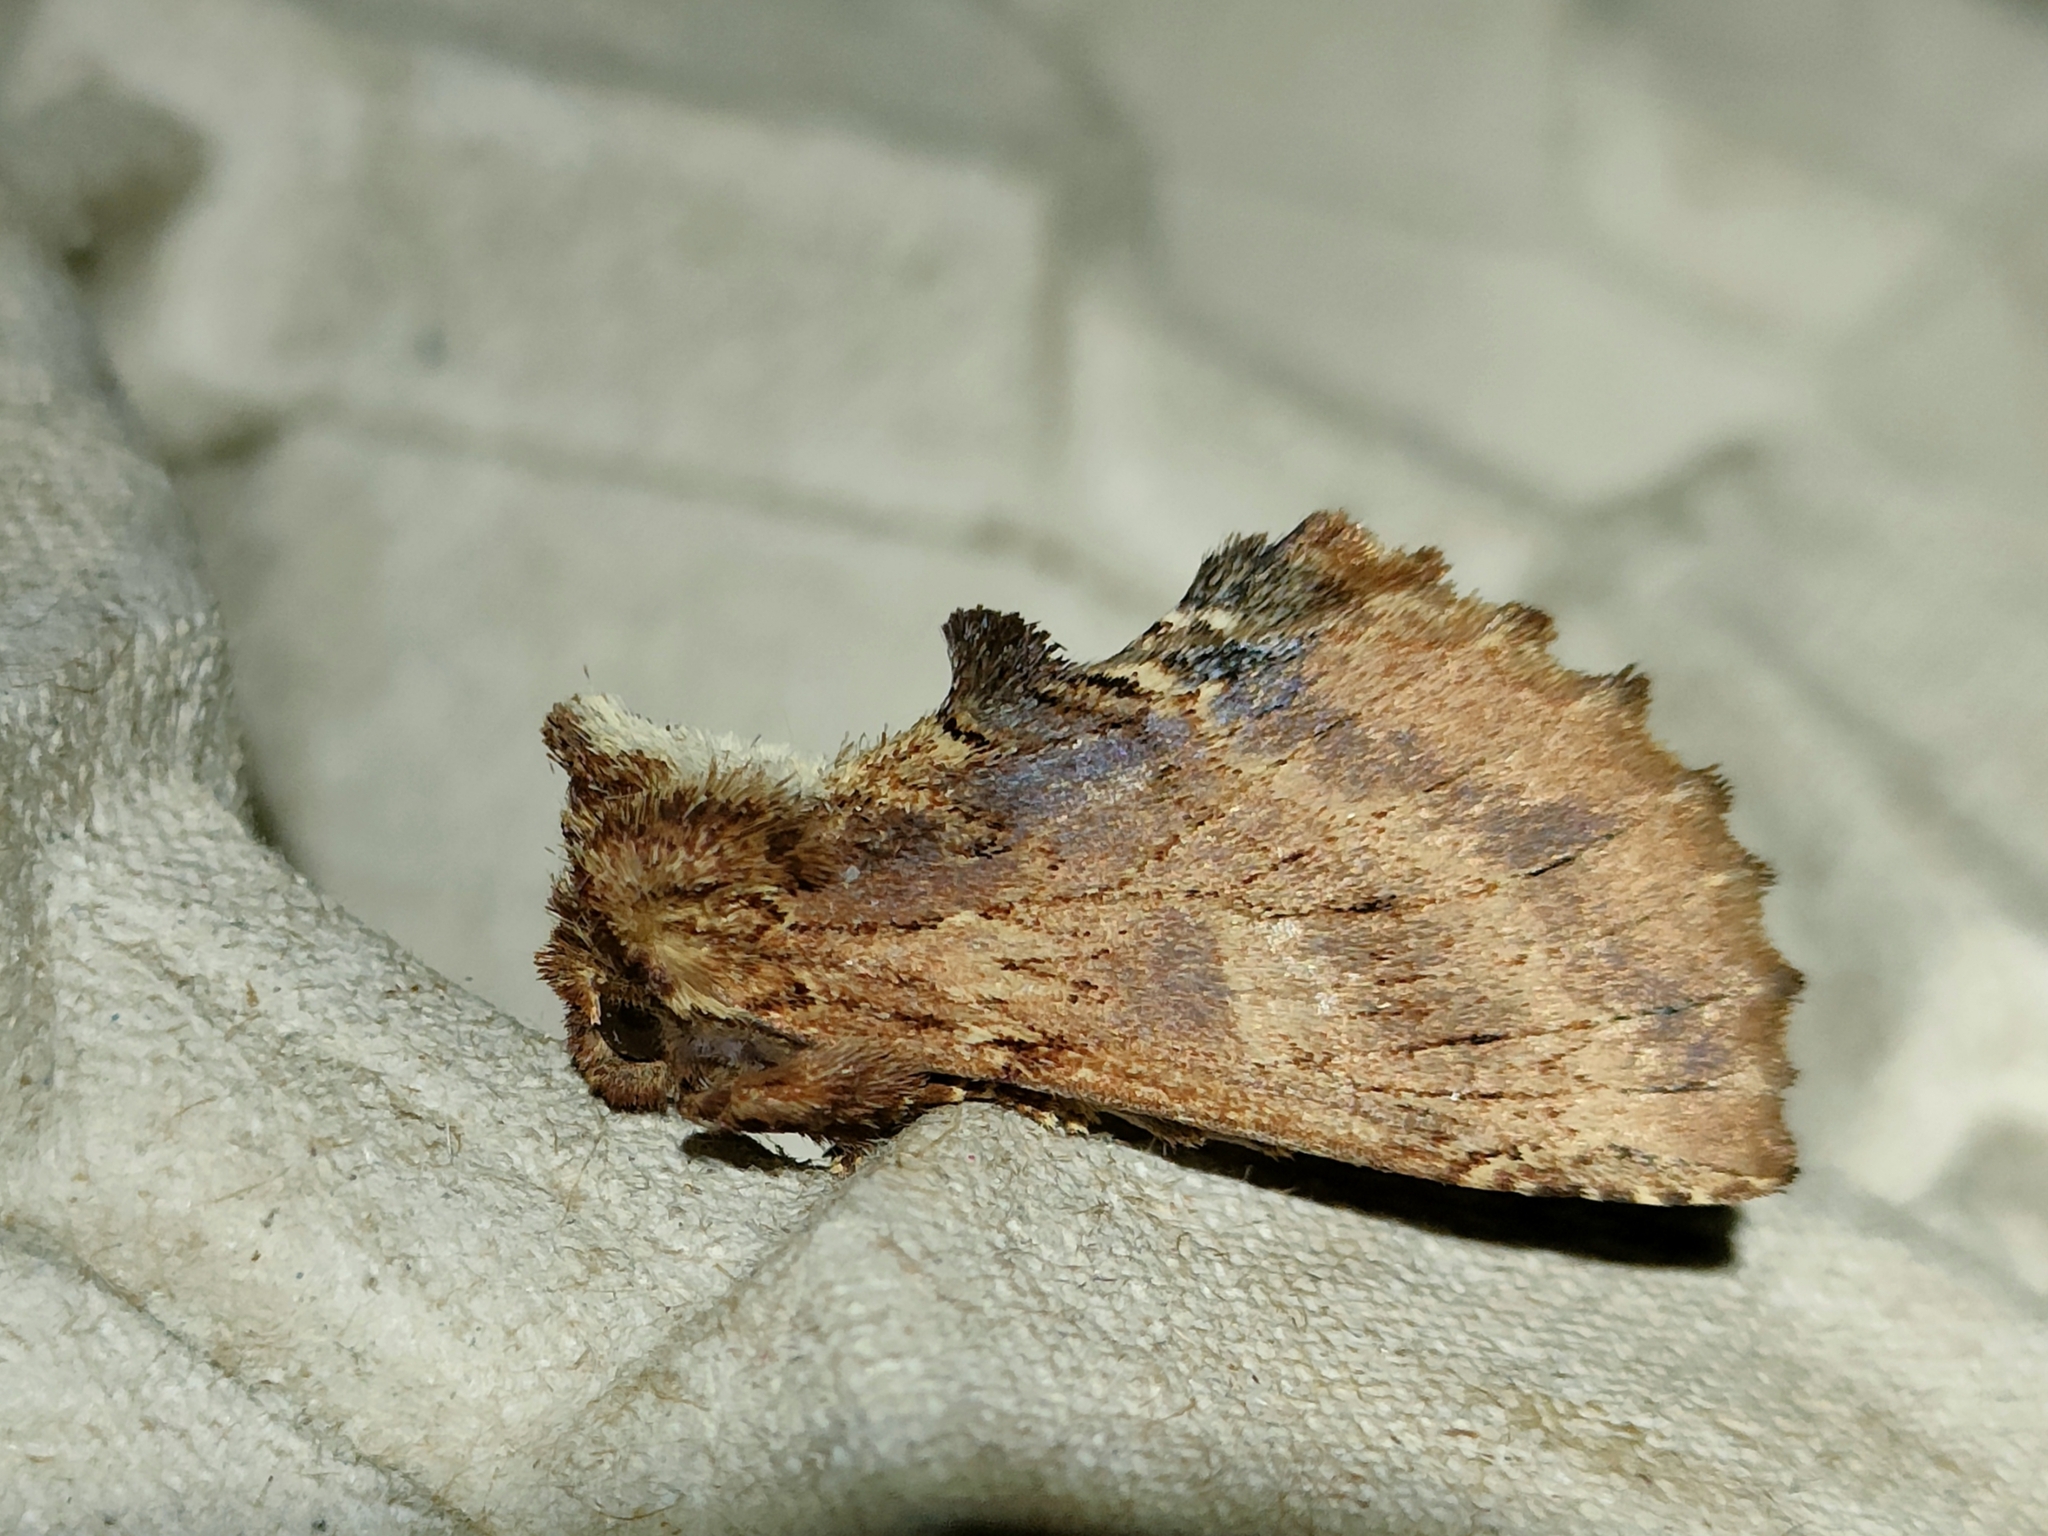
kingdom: Animalia
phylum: Arthropoda
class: Insecta
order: Lepidoptera
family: Notodontidae
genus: Ptilodon
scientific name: Ptilodon capucina
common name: Coxcomb prominent
